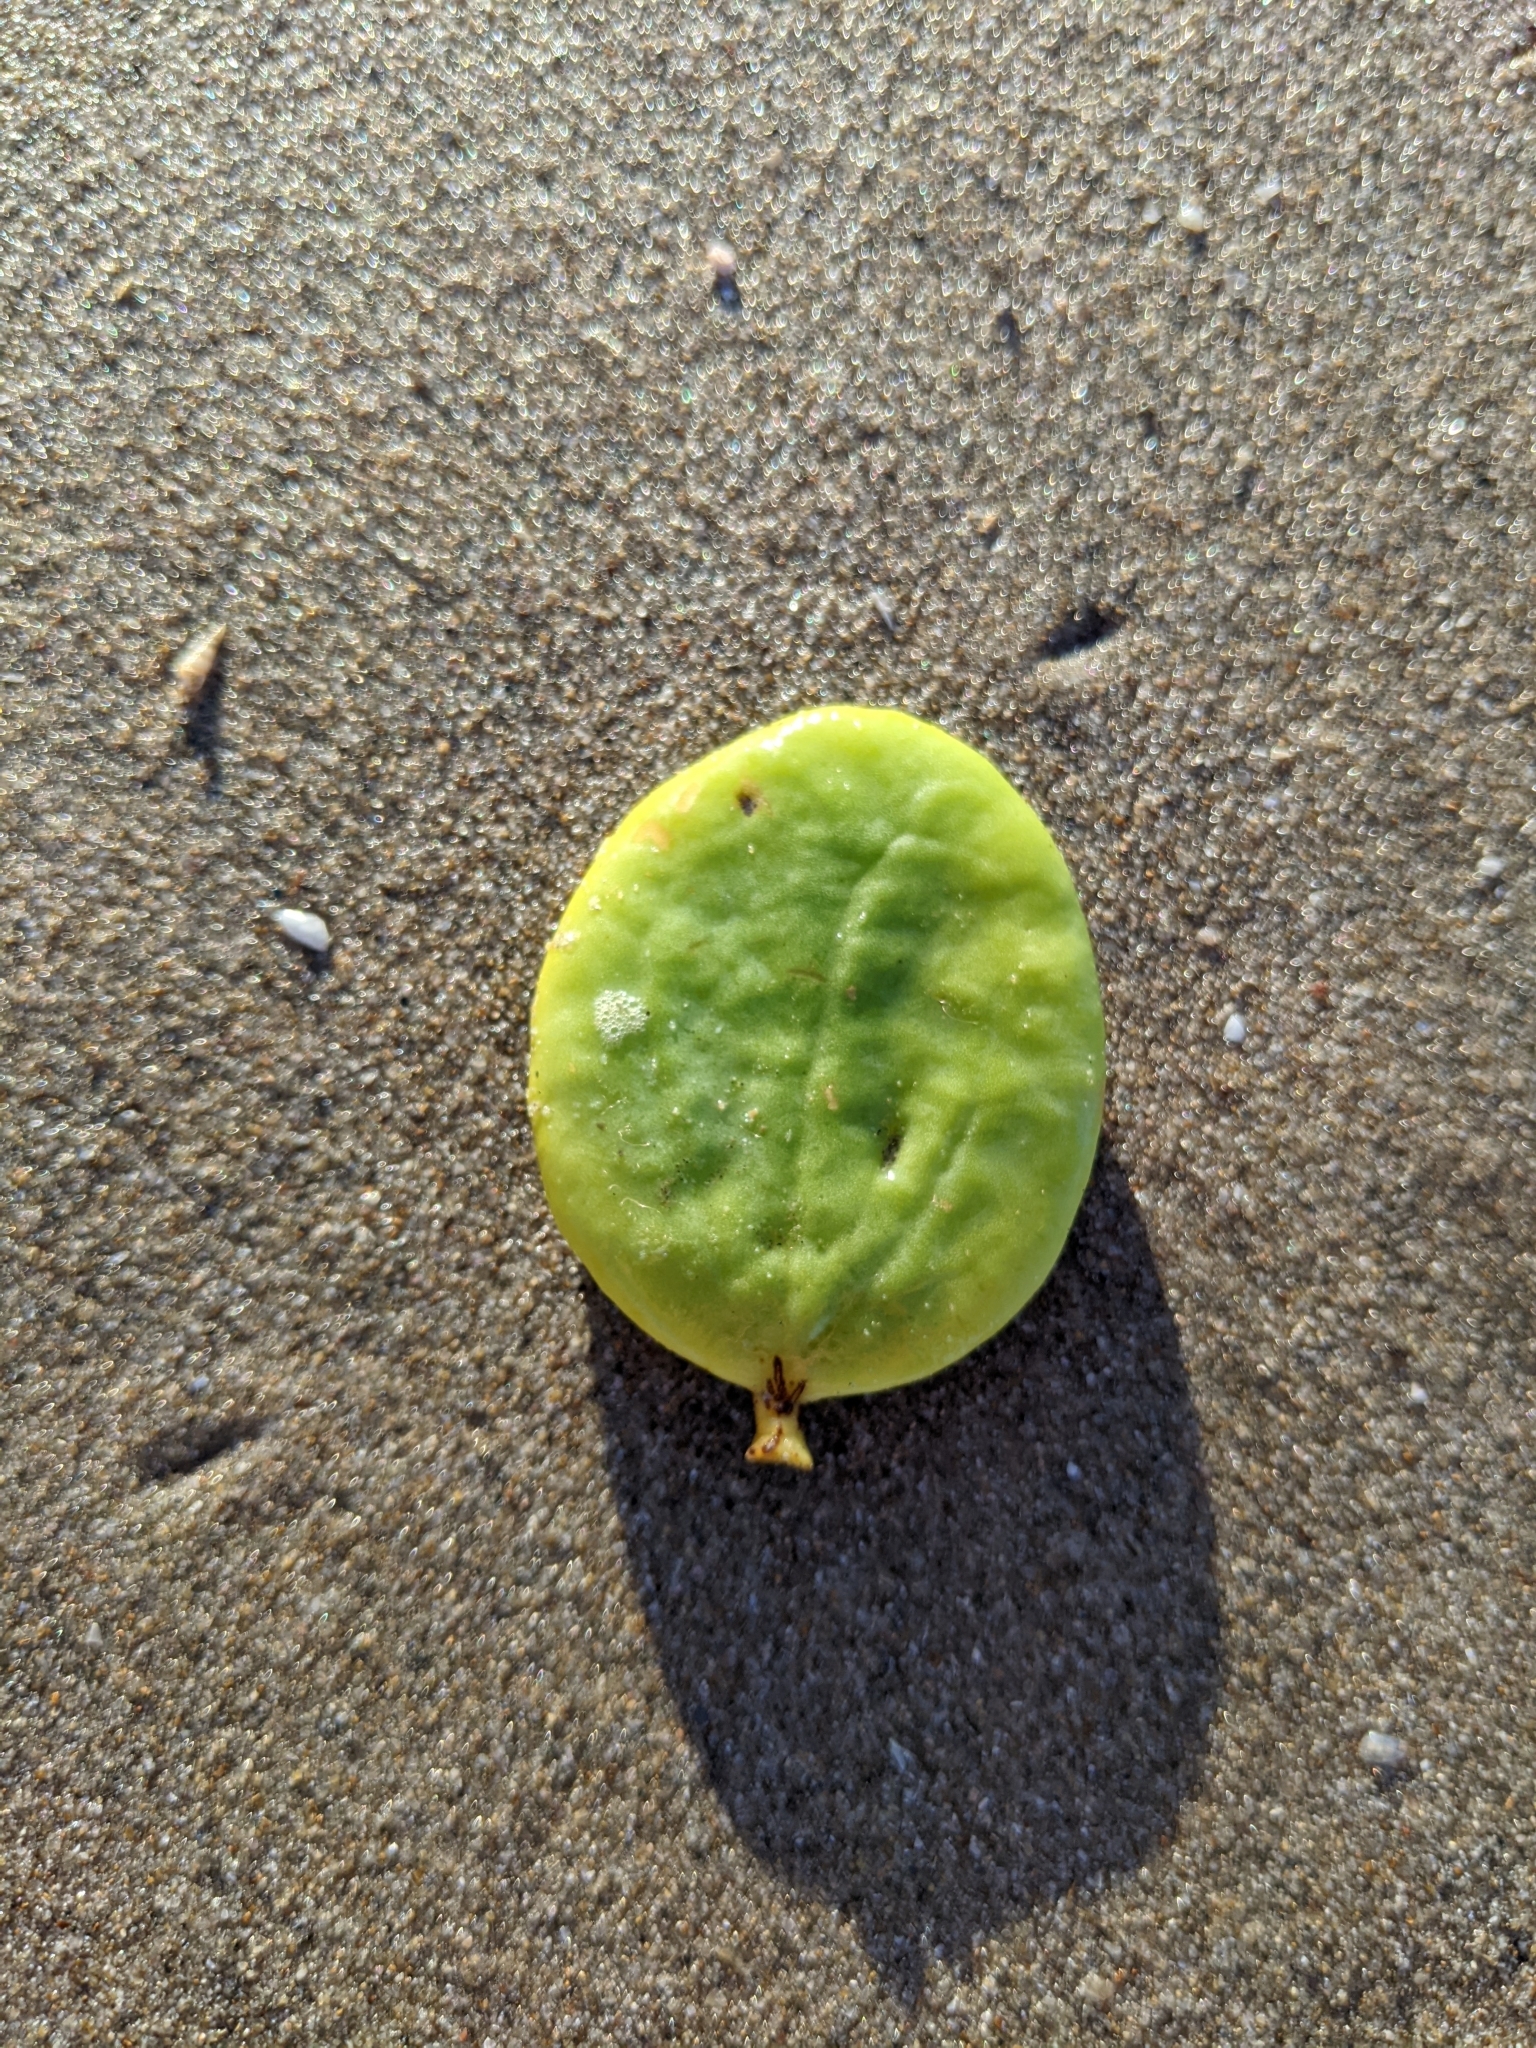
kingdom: Plantae
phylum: Tracheophyta
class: Magnoliopsida
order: Santalales
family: Loranthaceae
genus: Amyema
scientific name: Amyema mackayensis
